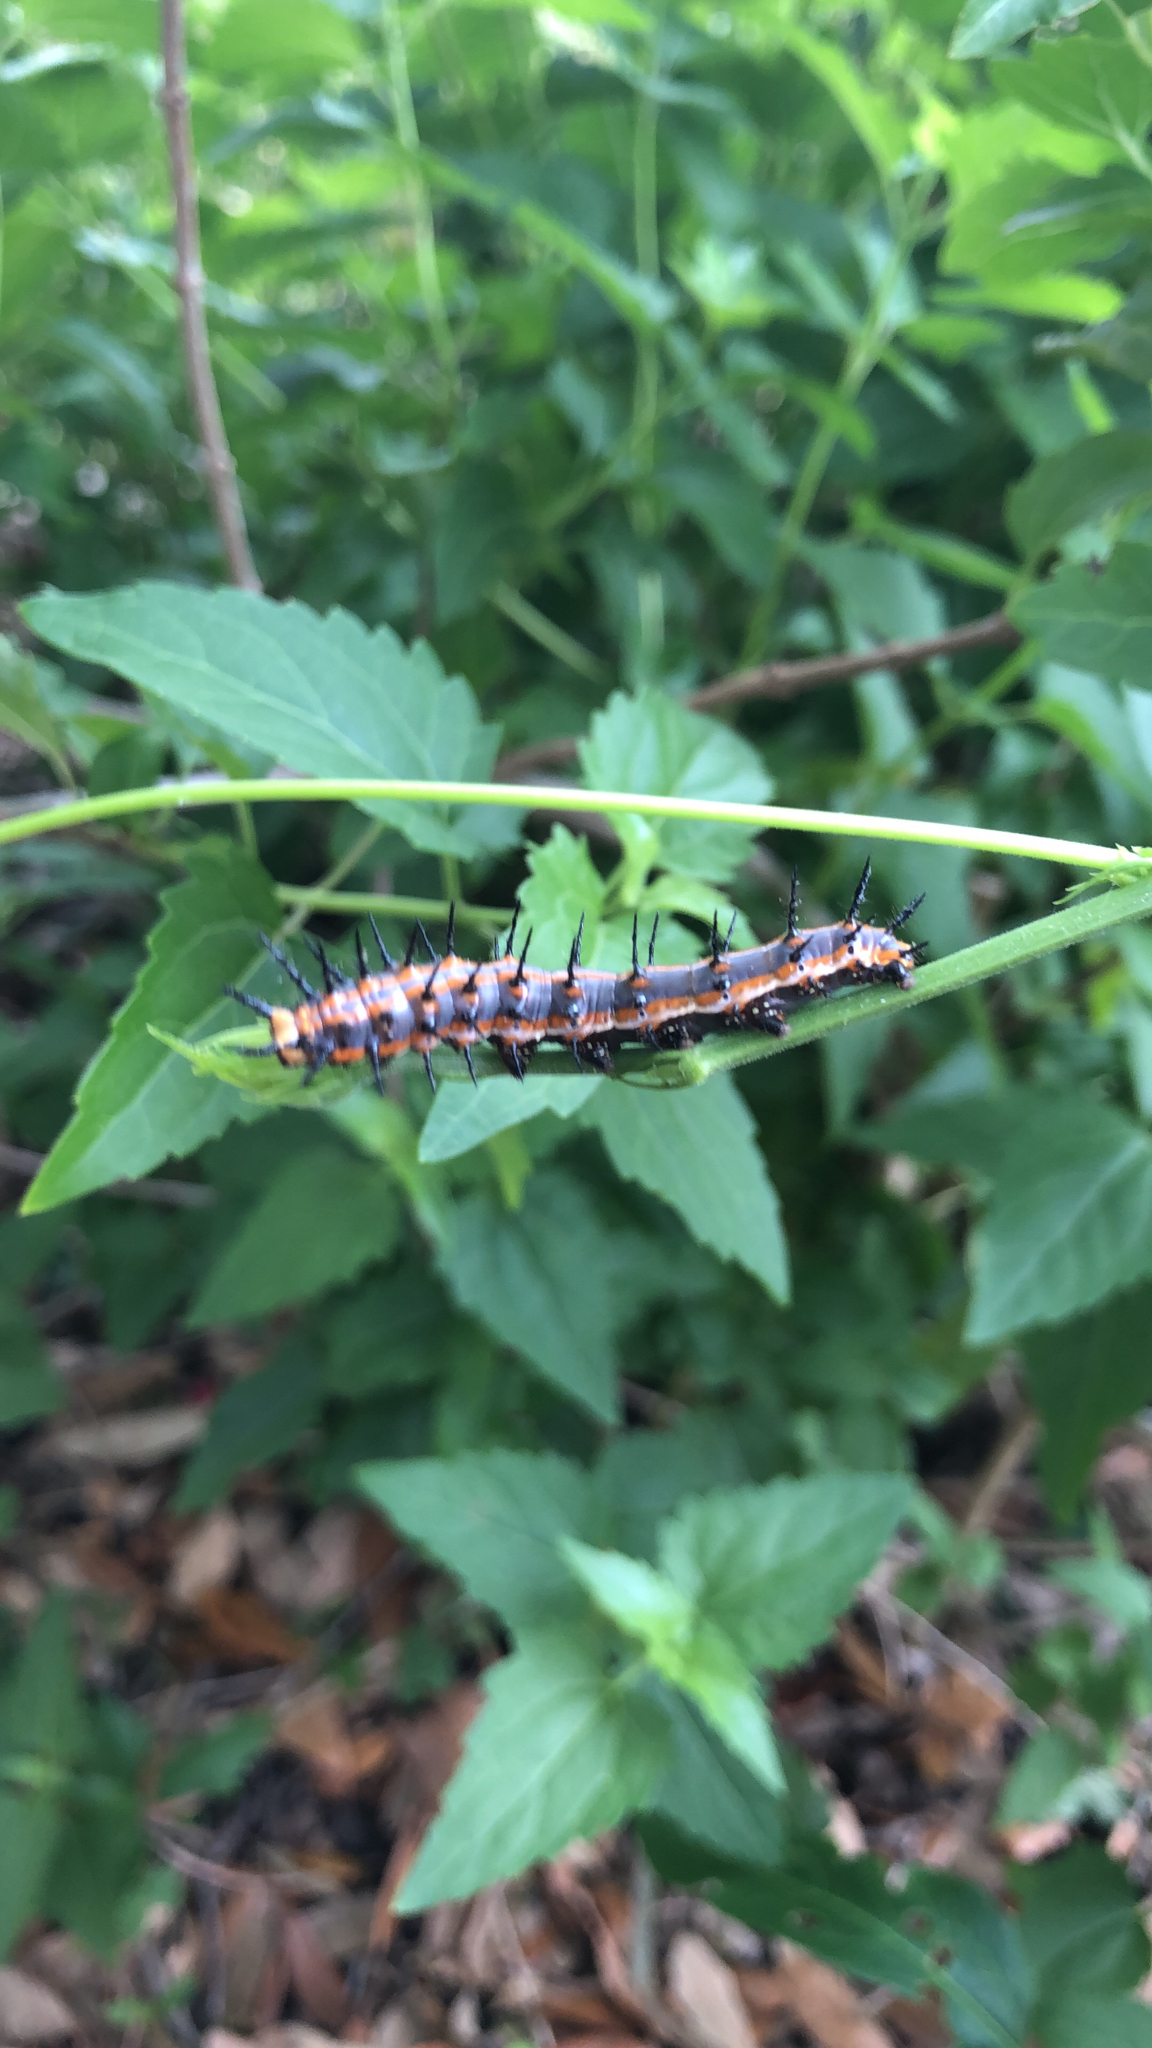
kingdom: Animalia
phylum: Arthropoda
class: Insecta
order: Lepidoptera
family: Nymphalidae
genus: Dione
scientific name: Dione vanillae
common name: Gulf fritillary
